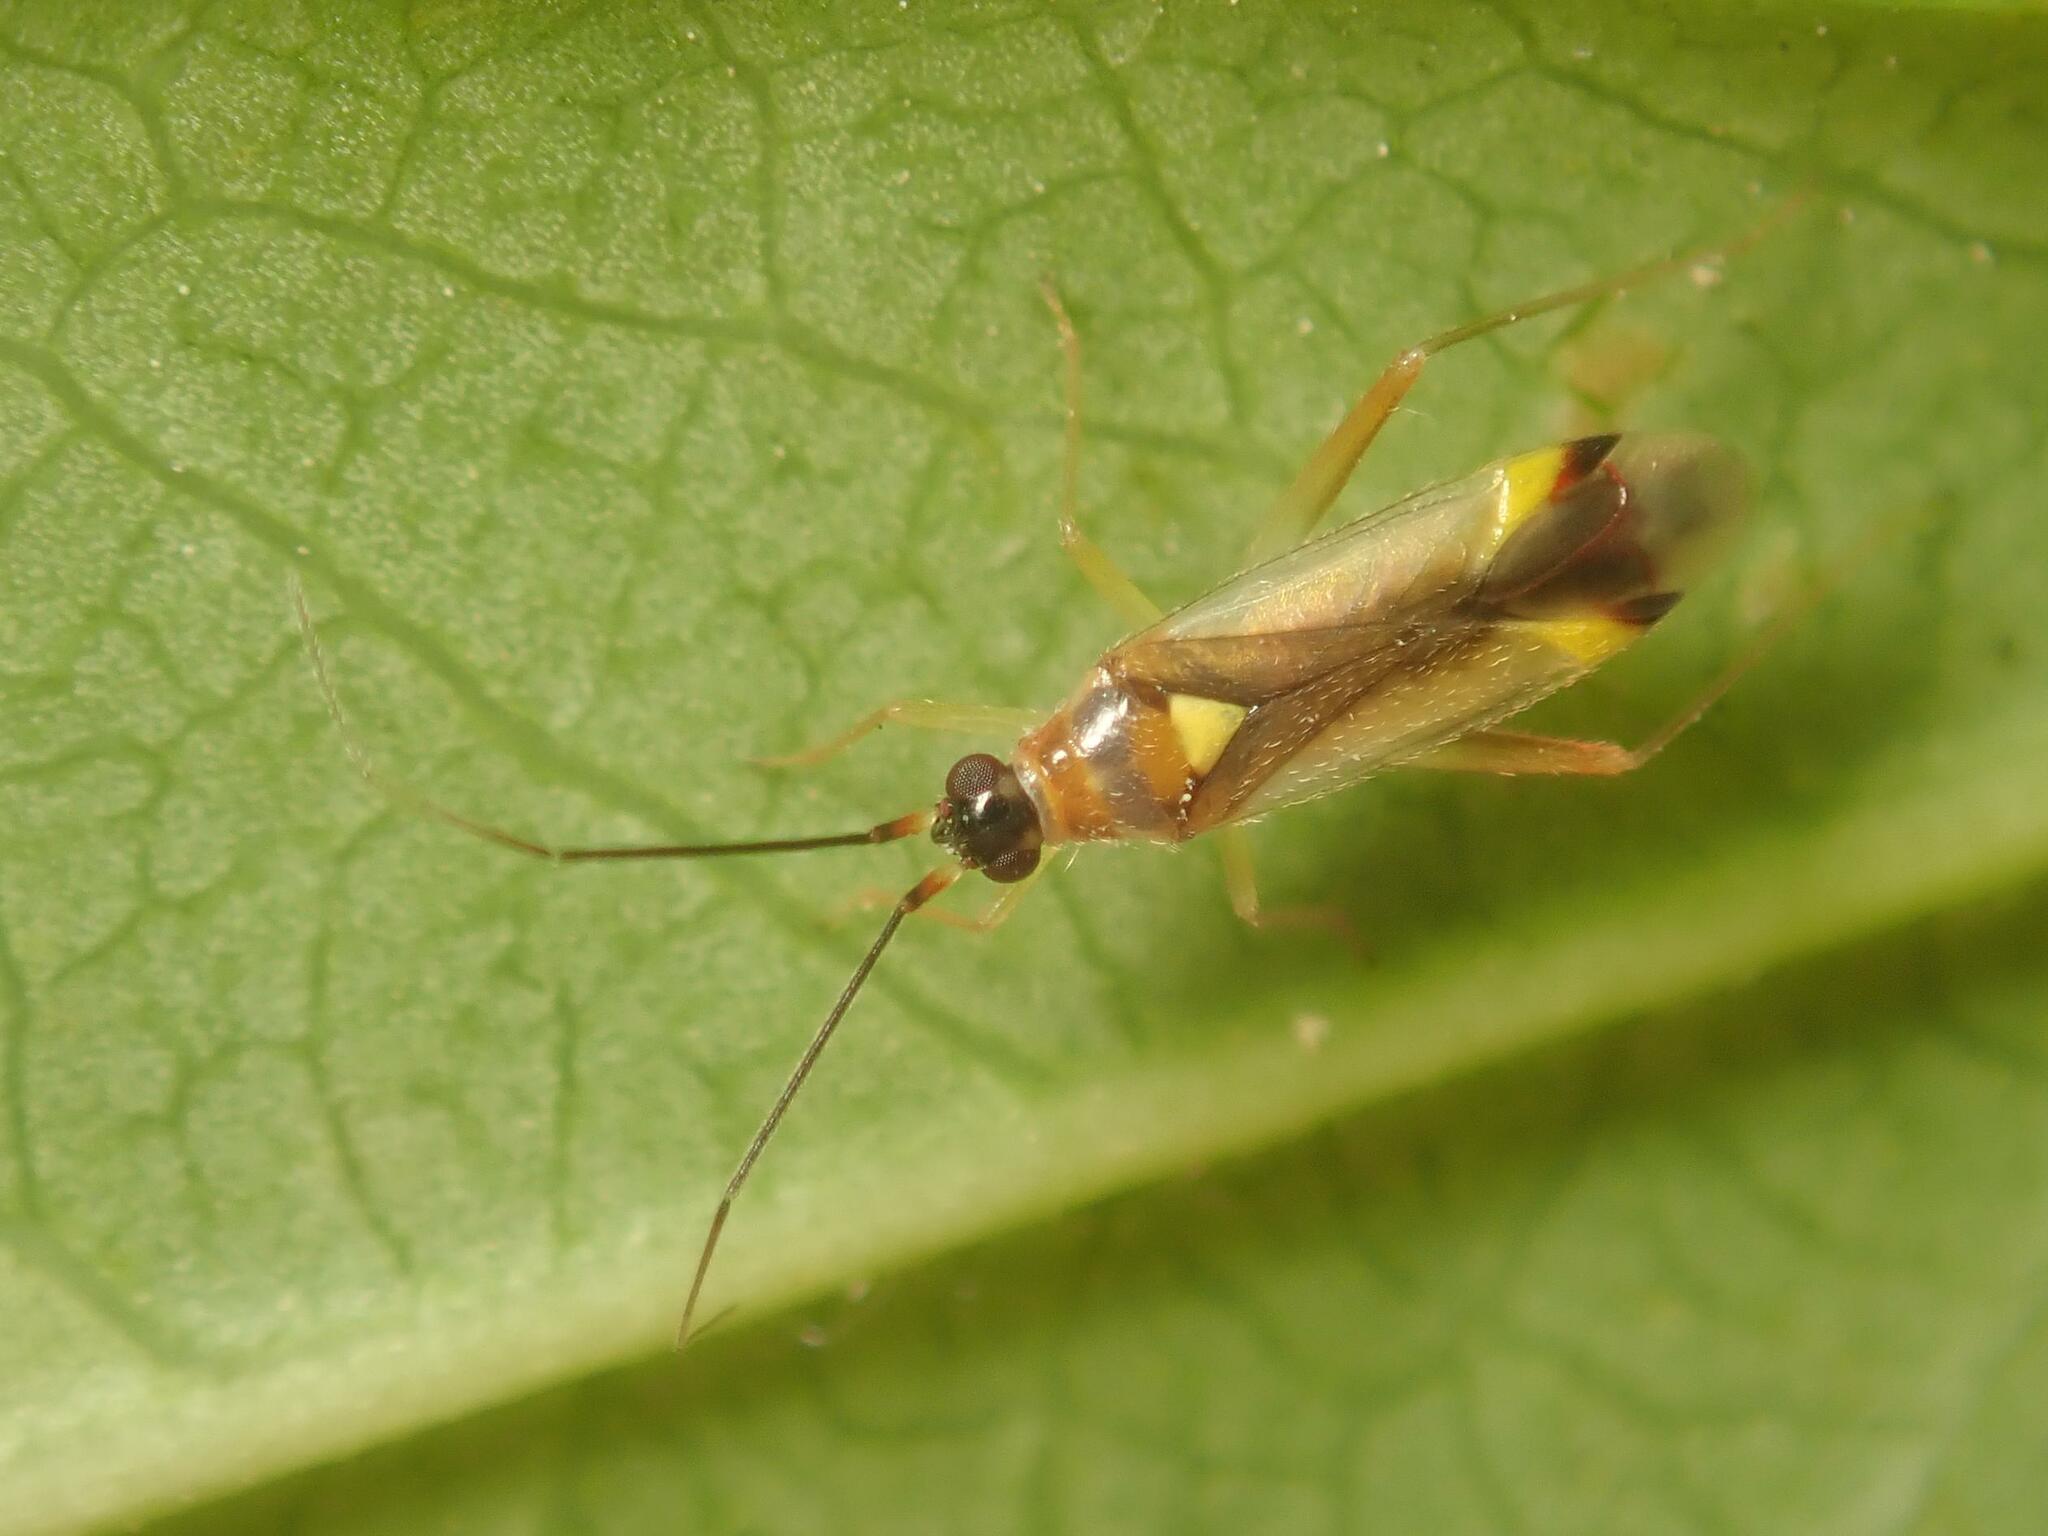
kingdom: Animalia
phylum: Arthropoda
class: Insecta
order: Hemiptera
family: Miridae
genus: Campyloneura
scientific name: Campyloneura virgula
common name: Predatory bug
